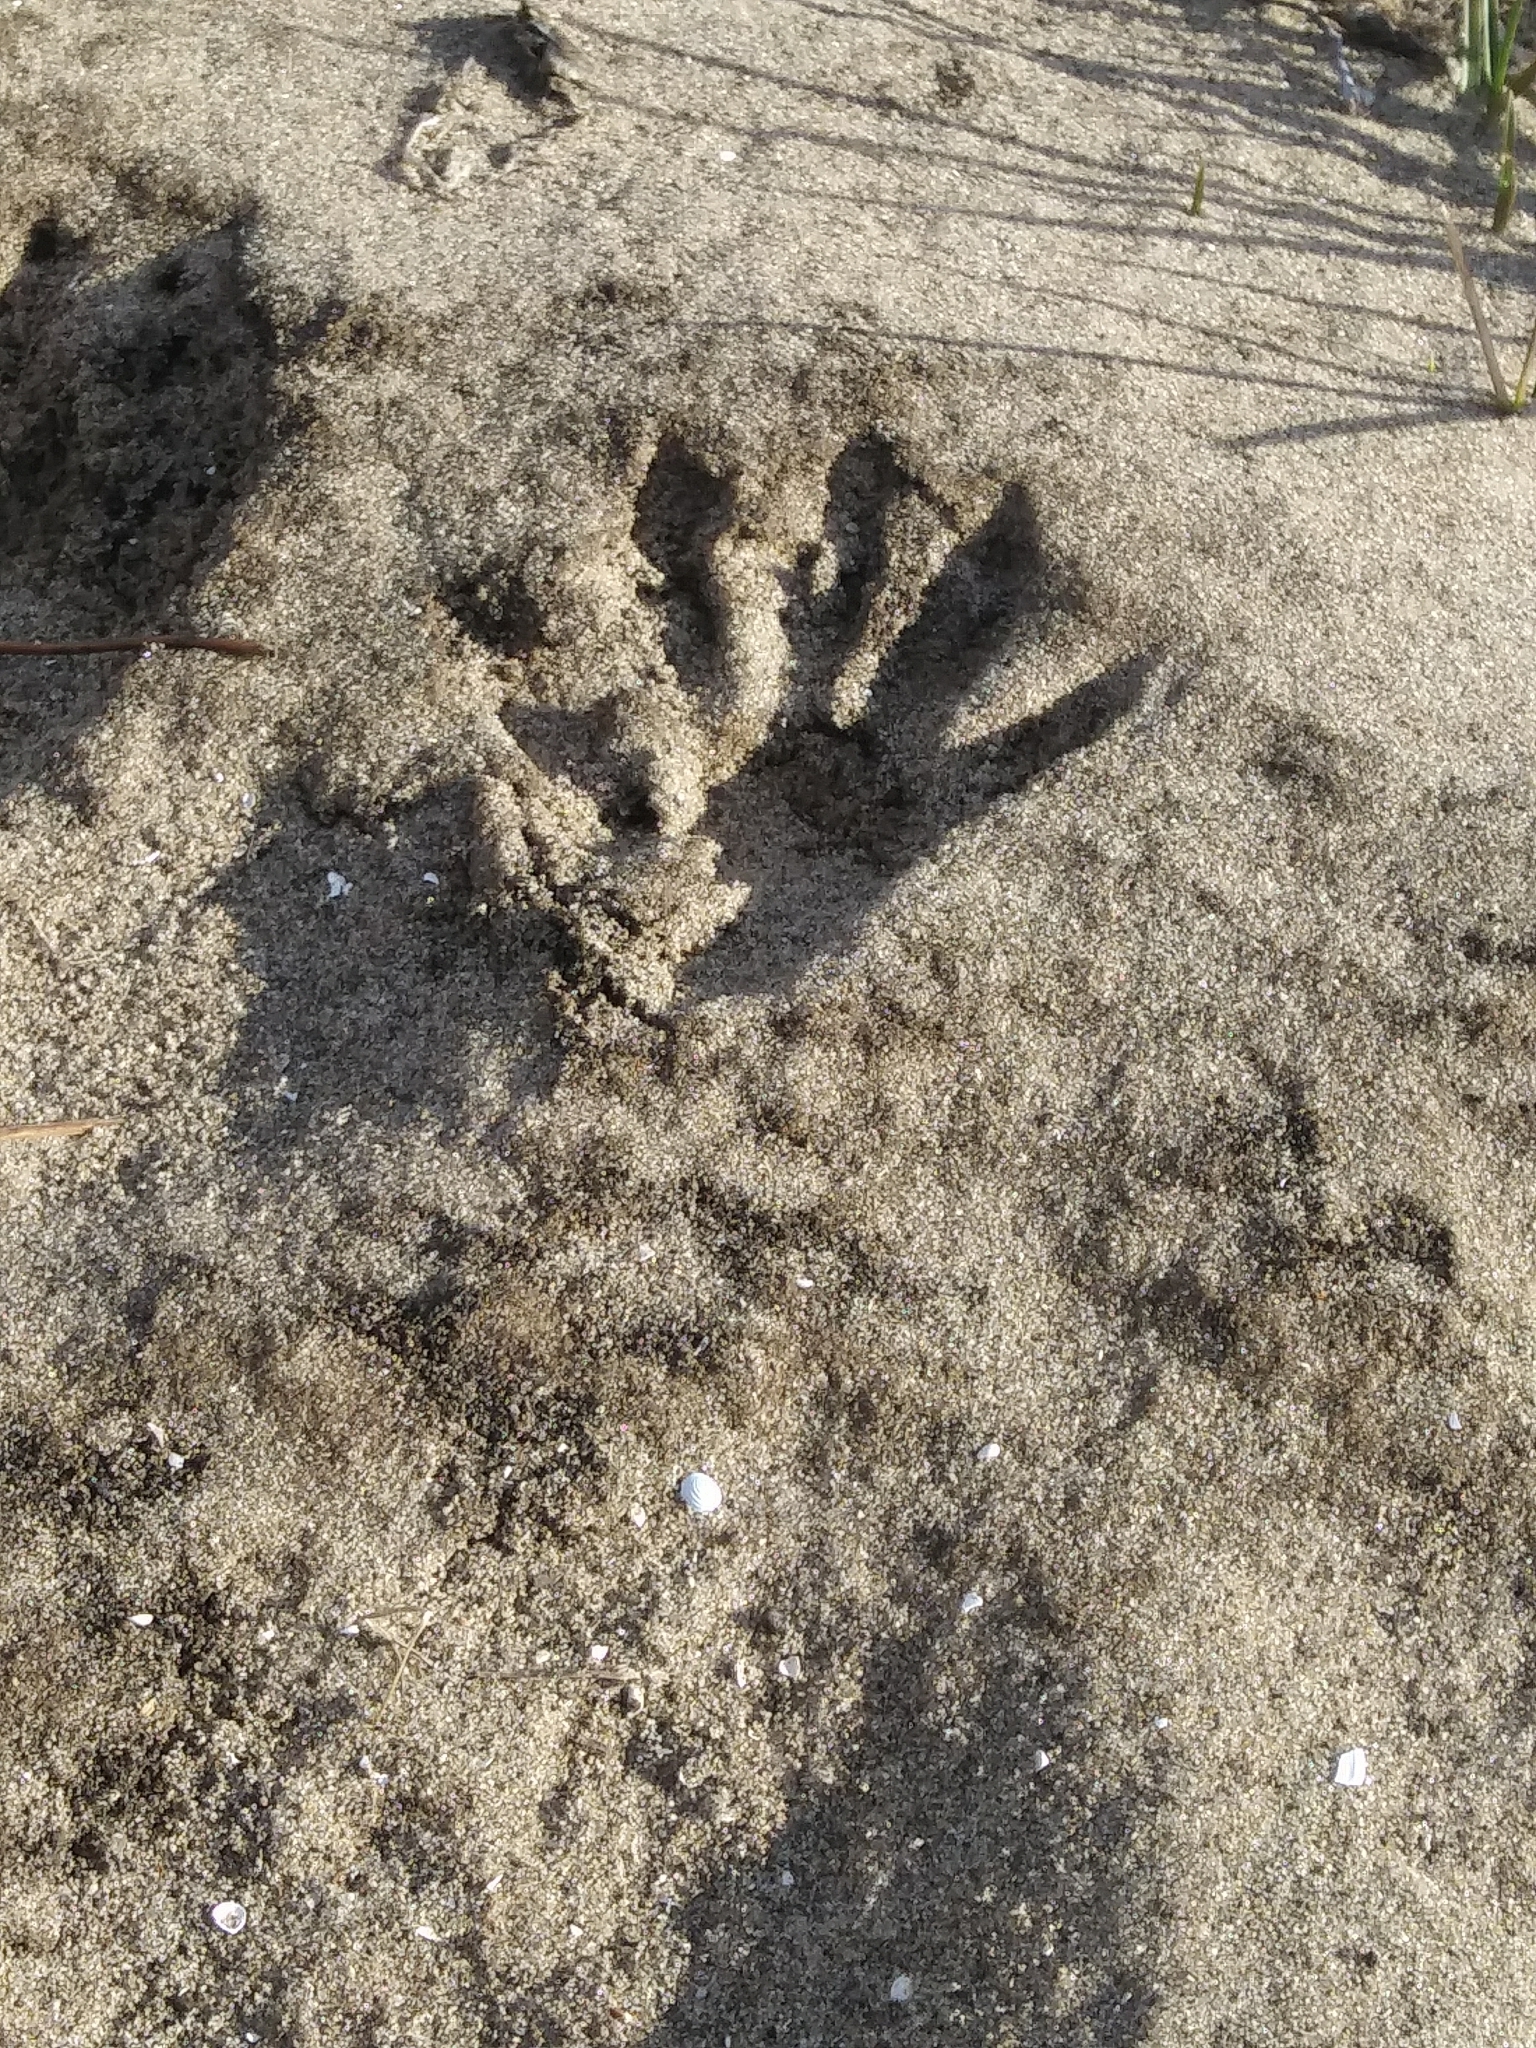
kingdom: Animalia
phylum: Chordata
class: Mammalia
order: Carnivora
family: Procyonidae
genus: Procyon
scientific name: Procyon lotor
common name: Raccoon
